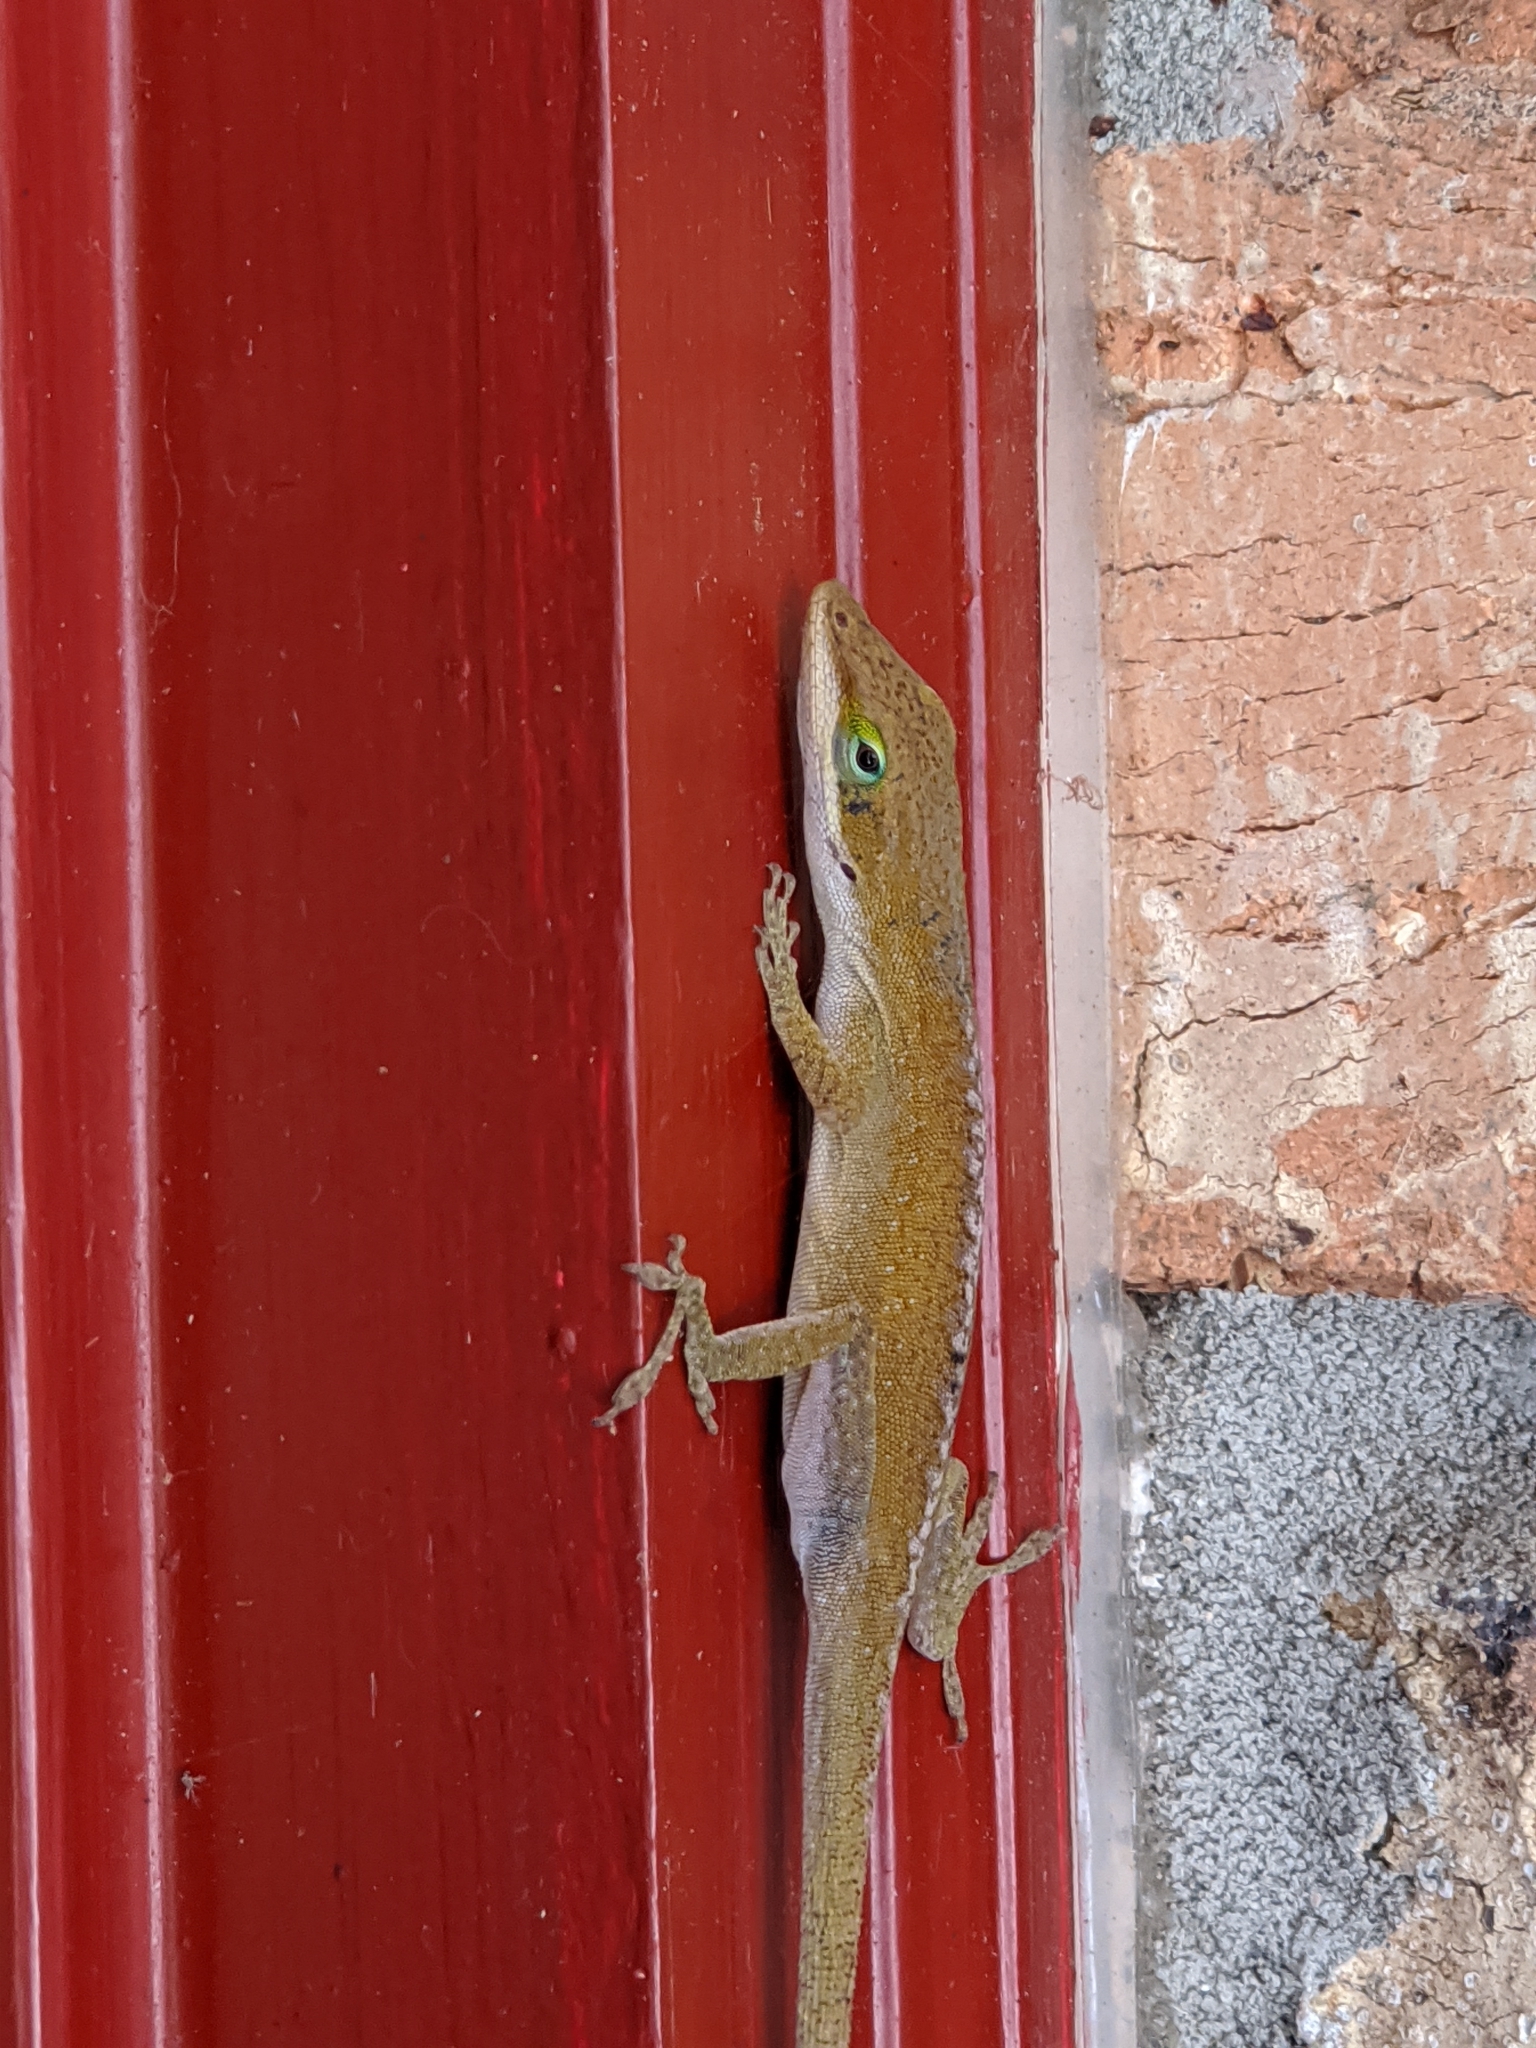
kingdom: Animalia
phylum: Chordata
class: Squamata
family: Dactyloidae
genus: Anolis
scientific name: Anolis carolinensis
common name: Green anole
